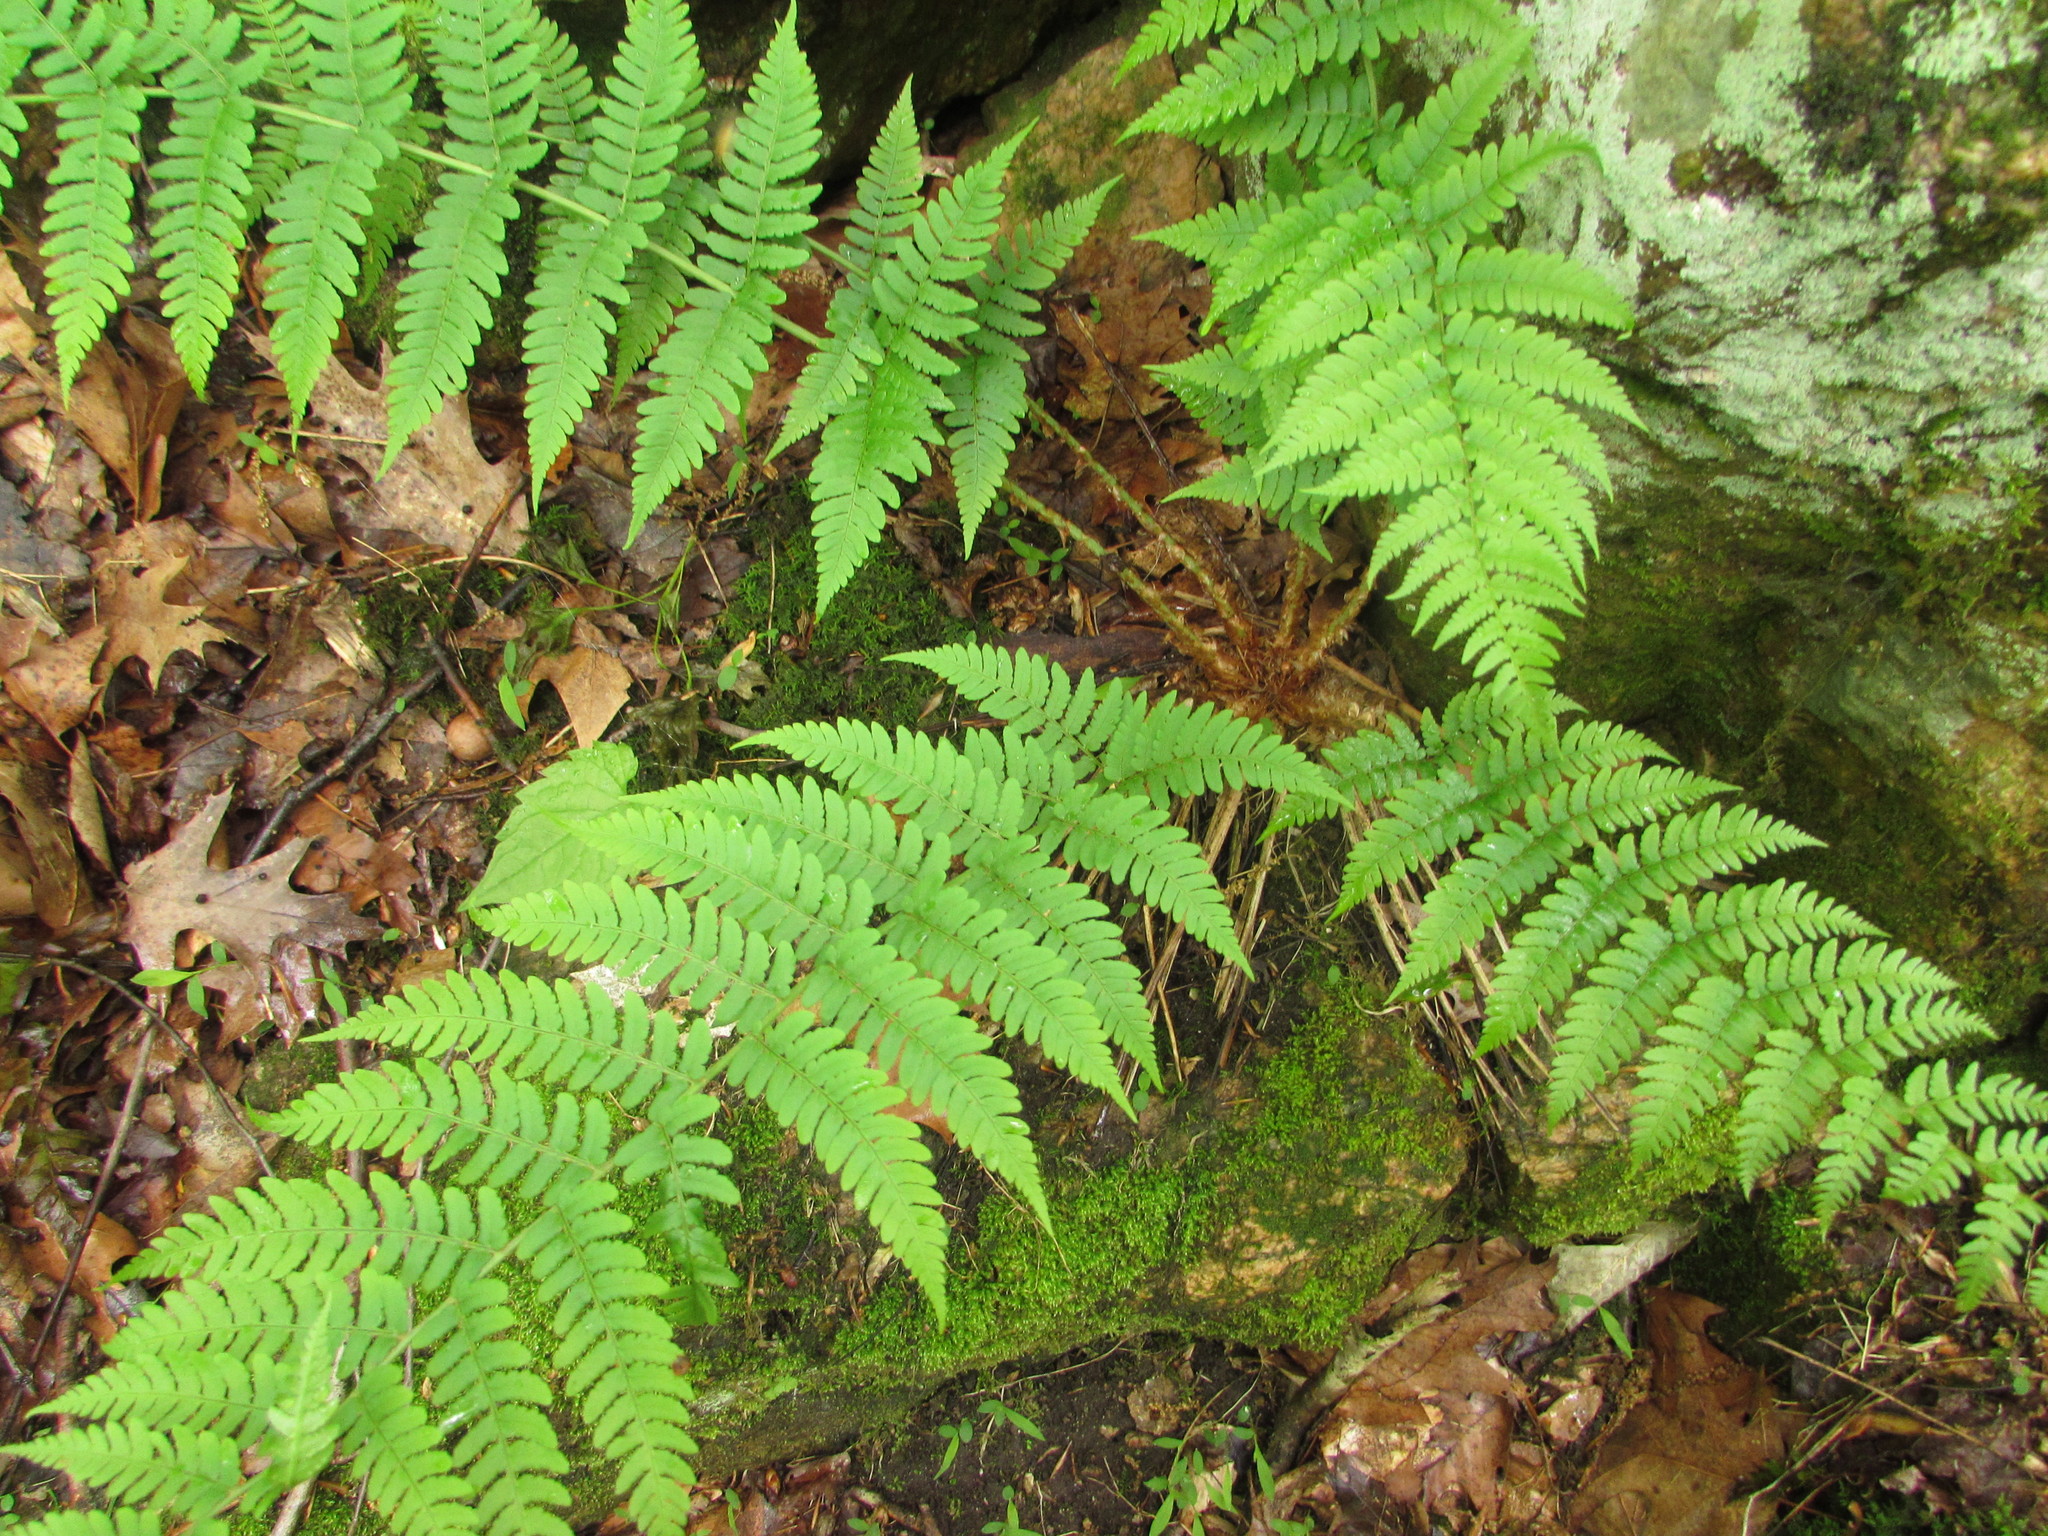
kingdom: Plantae
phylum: Tracheophyta
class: Polypodiopsida
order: Polypodiales
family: Dryopteridaceae
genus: Dryopteris
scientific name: Dryopteris marginalis
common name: Marginal wood fern
